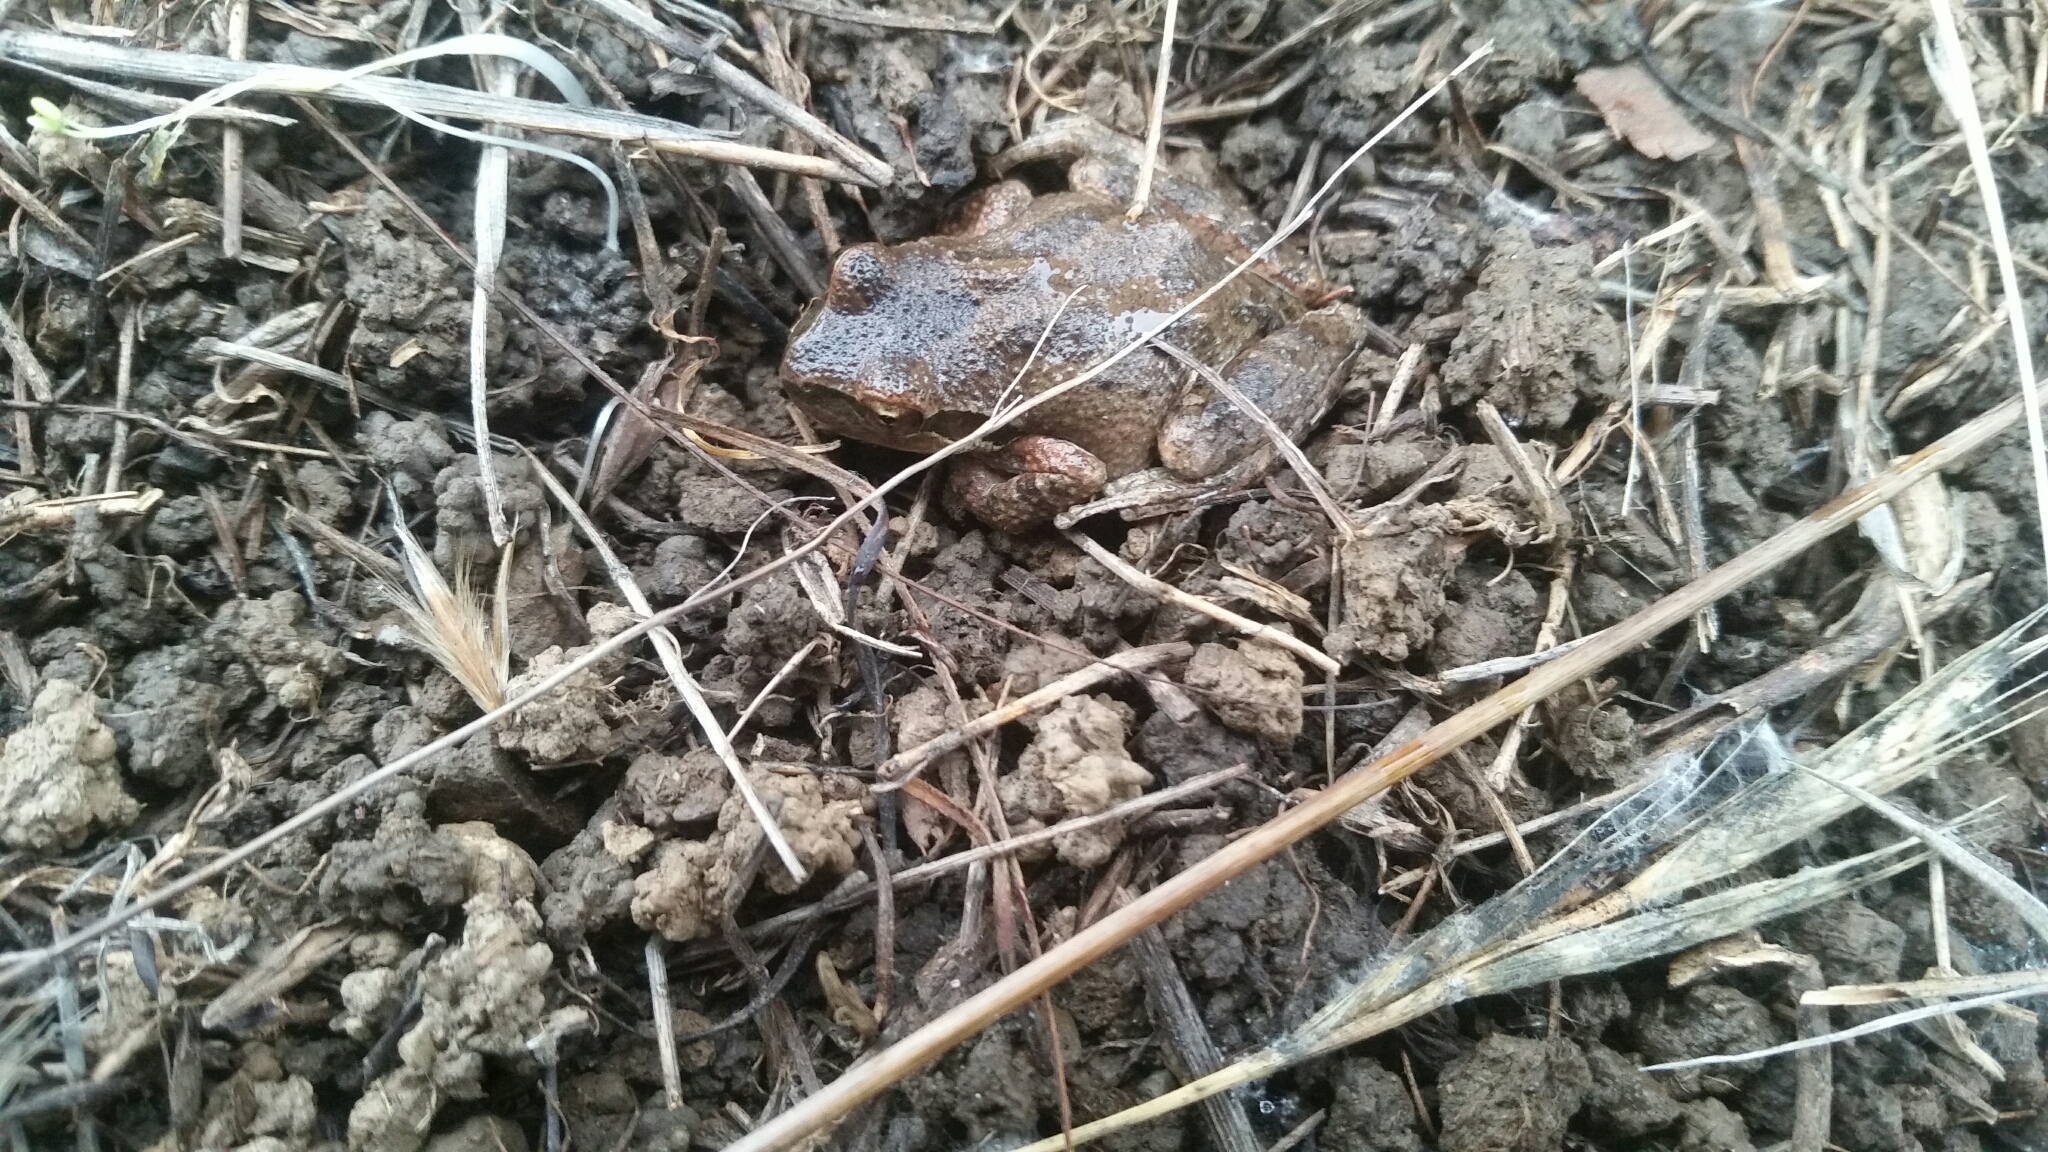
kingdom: Animalia
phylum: Chordata
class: Amphibia
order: Anura
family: Hylidae
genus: Pseudacris
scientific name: Pseudacris regilla
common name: Pacific chorus frog
